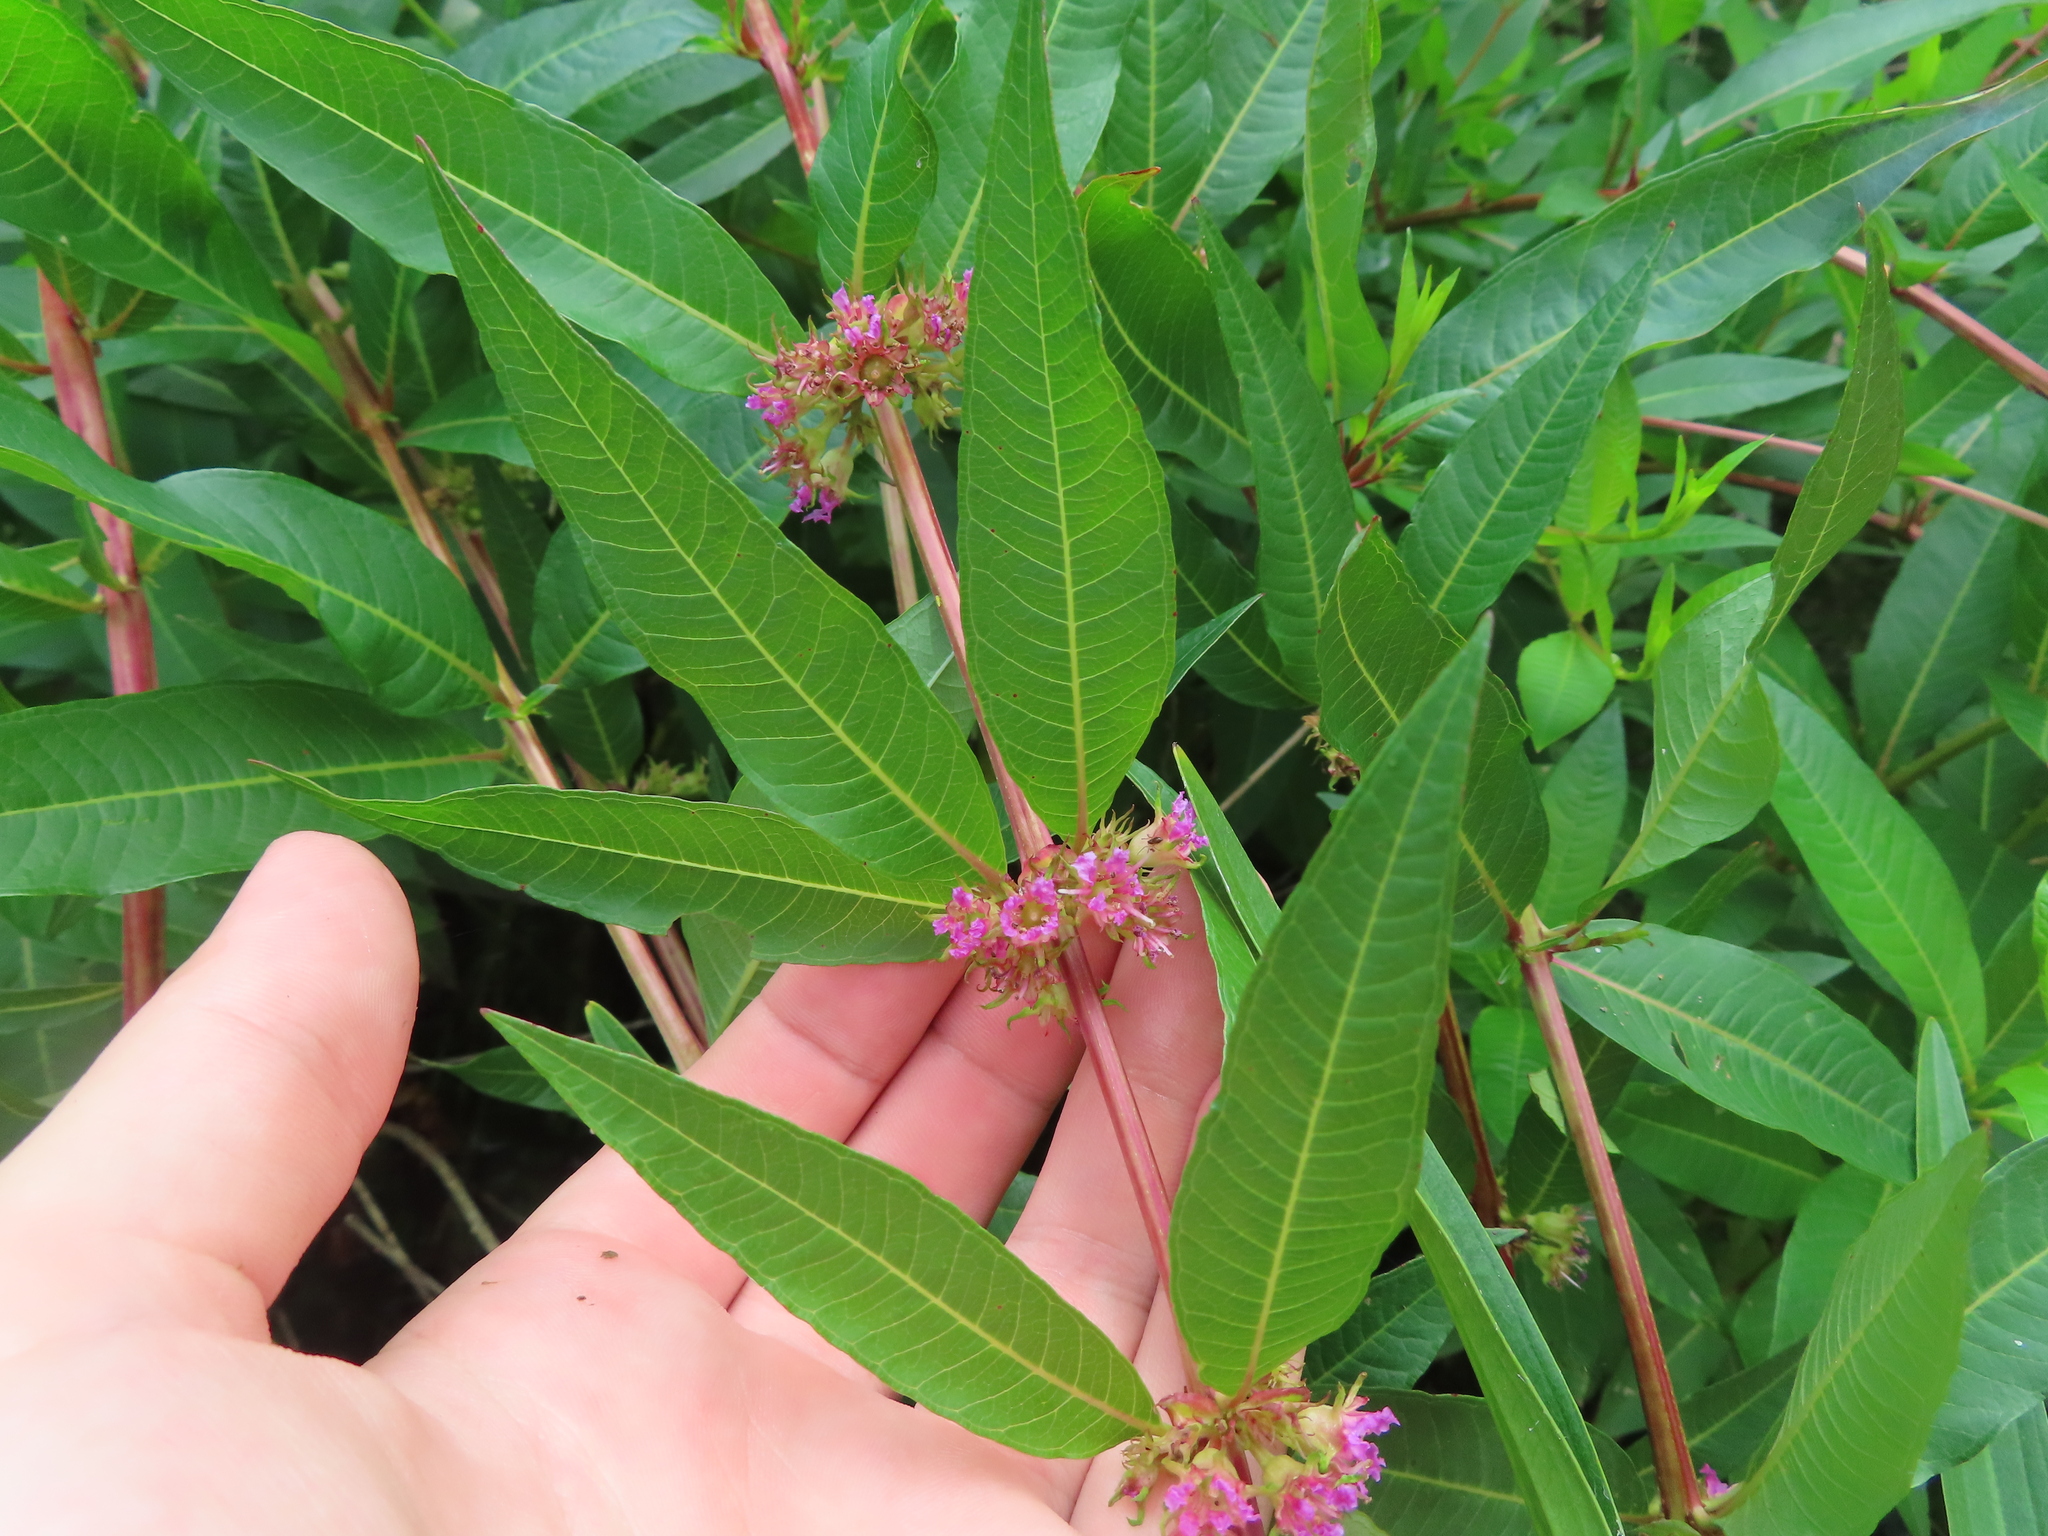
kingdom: Plantae
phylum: Tracheophyta
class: Magnoliopsida
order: Myrtales
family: Lythraceae
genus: Decodon
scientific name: Decodon verticillatus
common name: Hairy swamp loosestrife
